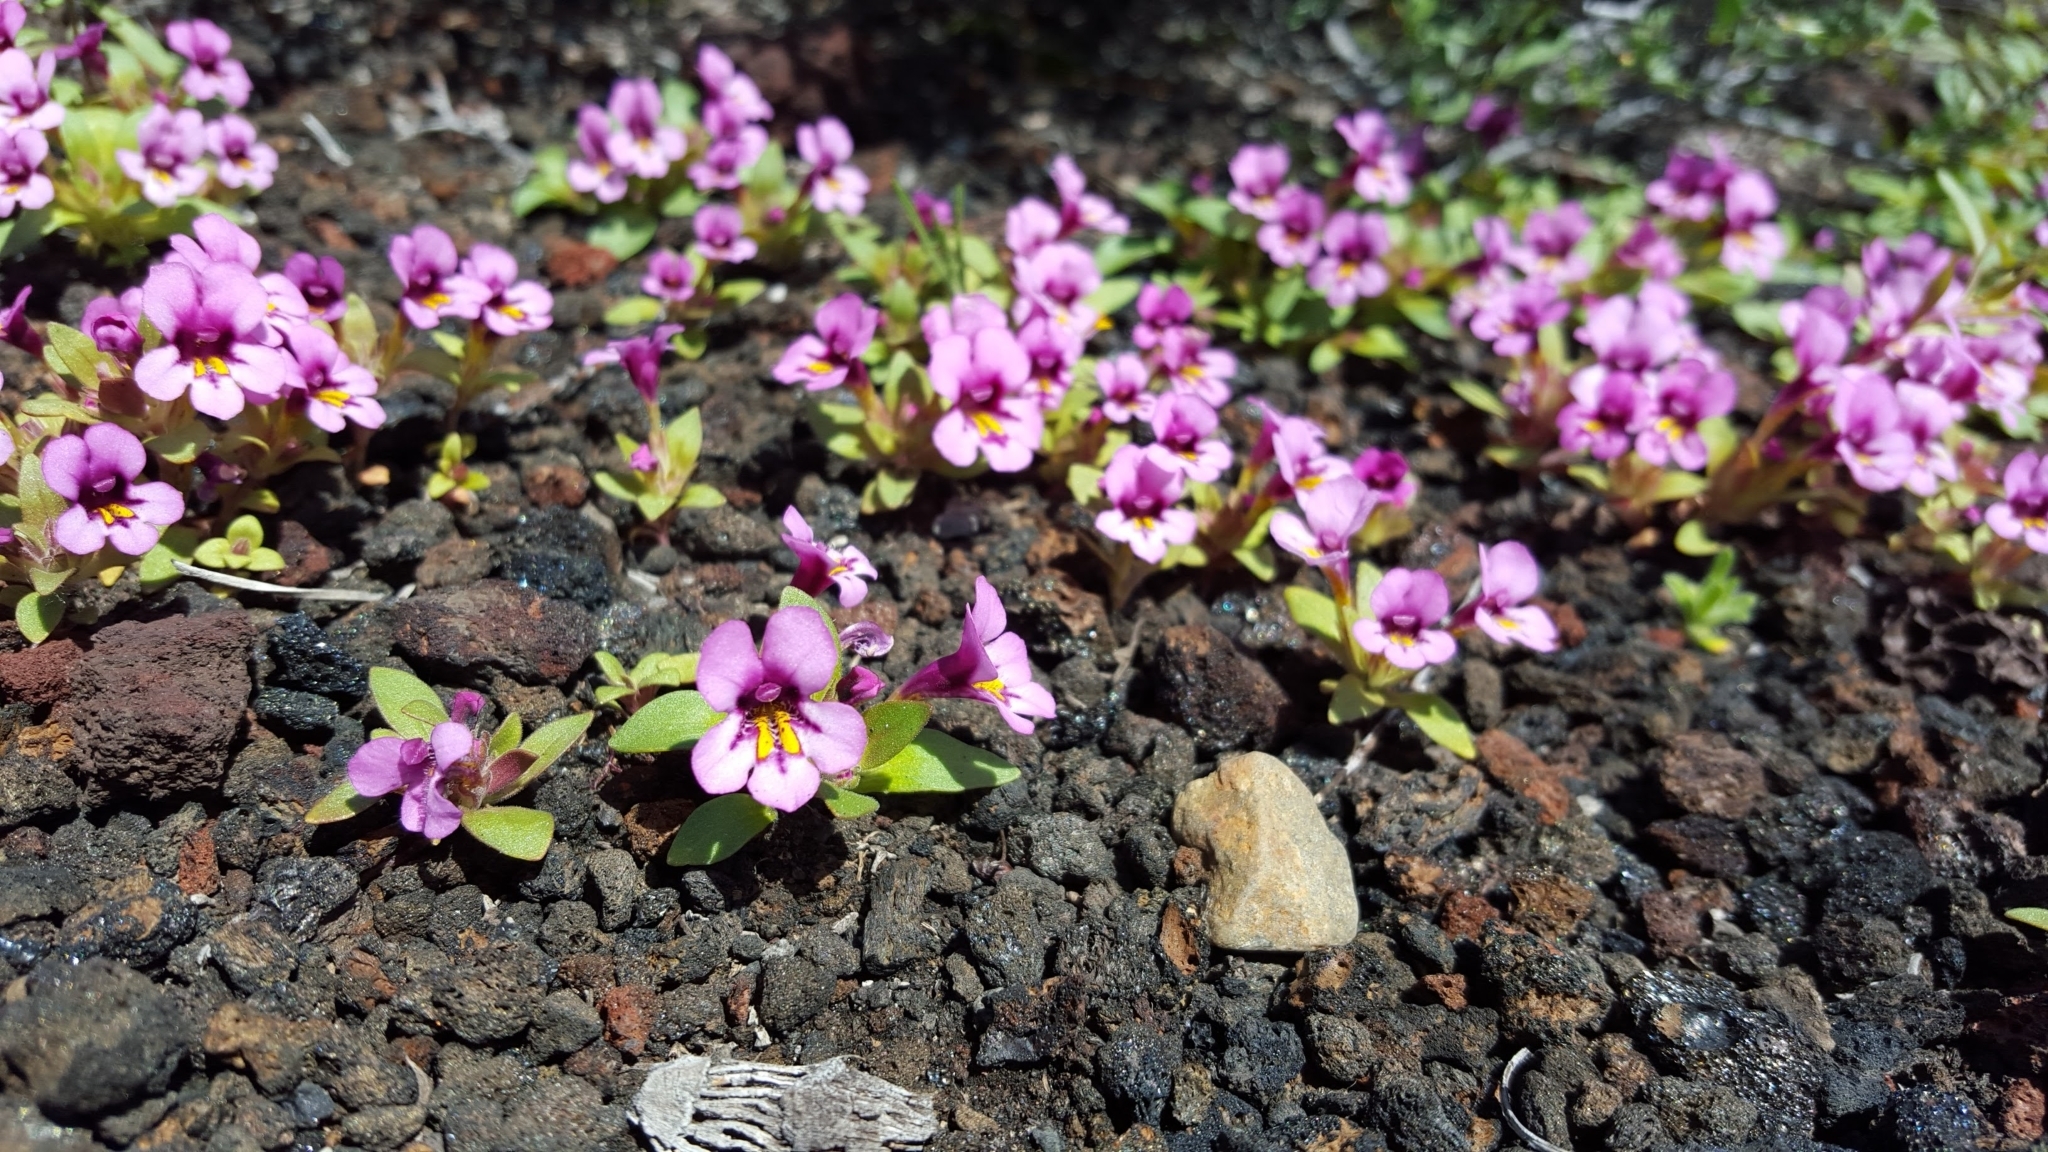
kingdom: Plantae
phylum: Tracheophyta
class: Magnoliopsida
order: Lamiales
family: Phrymaceae
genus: Diplacus
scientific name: Diplacus nanus
